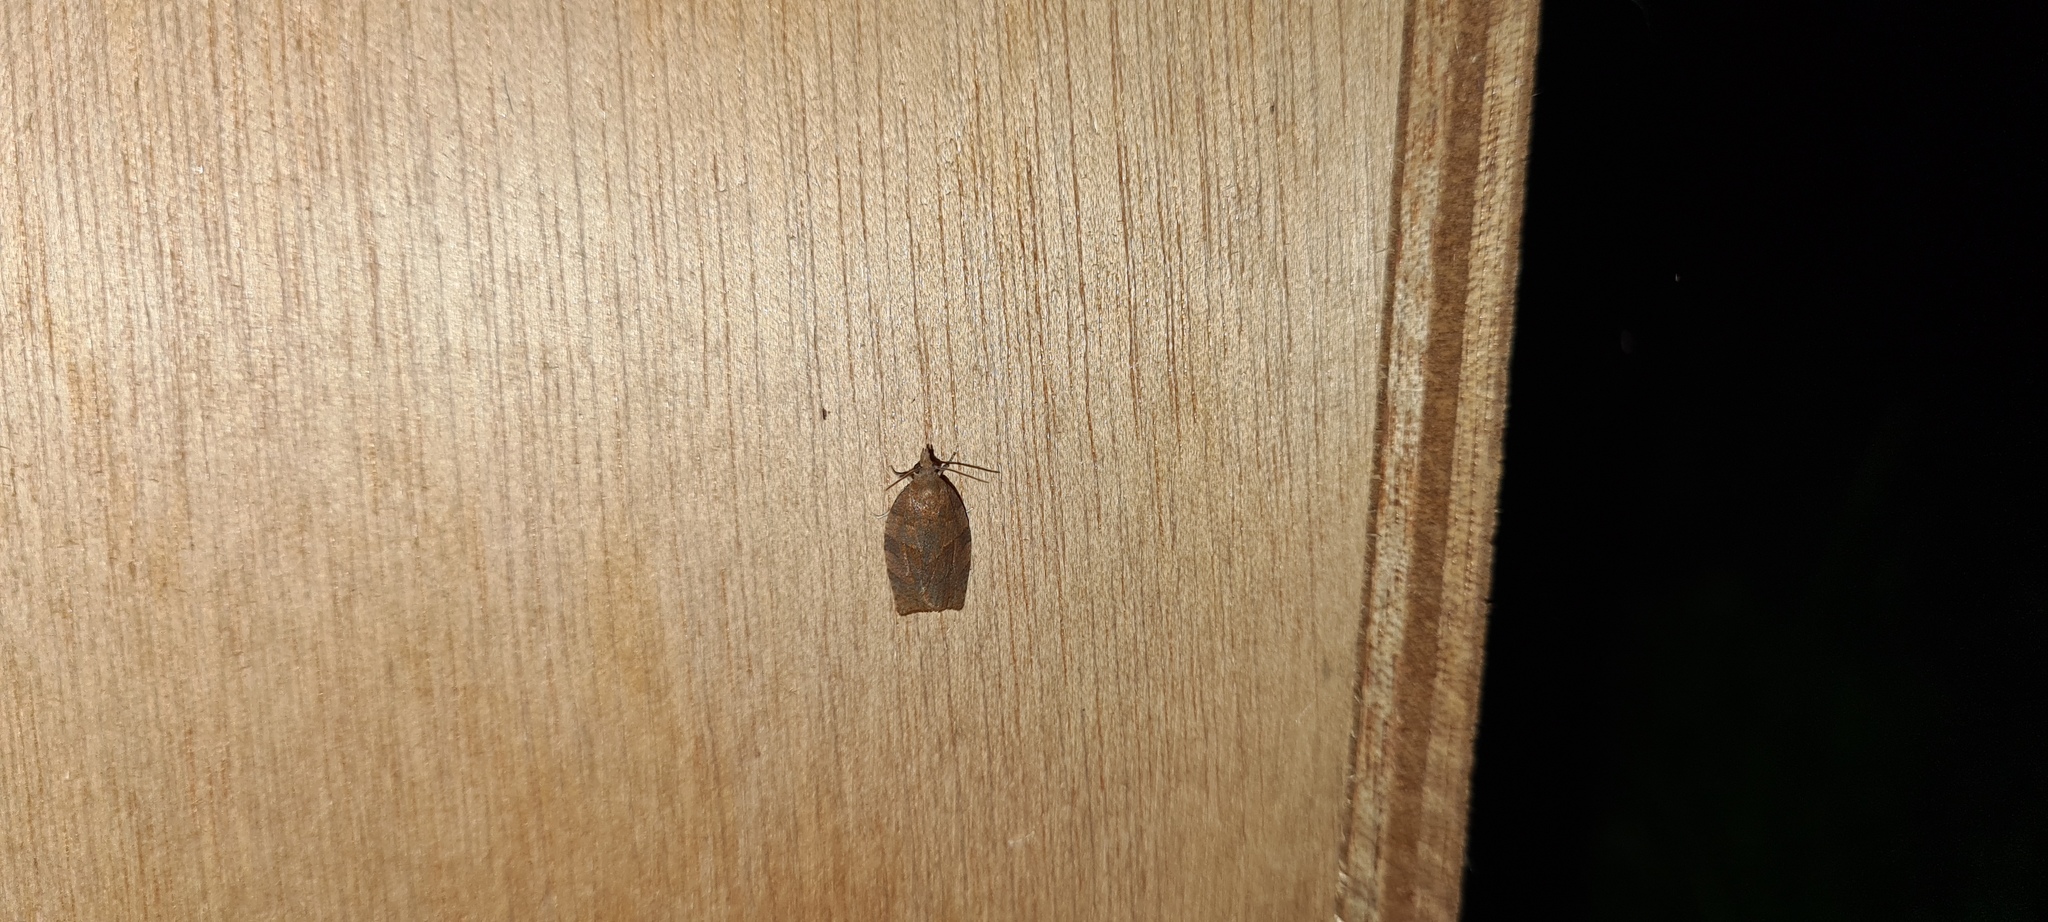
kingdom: Animalia
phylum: Arthropoda
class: Insecta
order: Lepidoptera
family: Tortricidae
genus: Pandemis
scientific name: Pandemis heparana
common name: Dark fruit-tree tortrix
